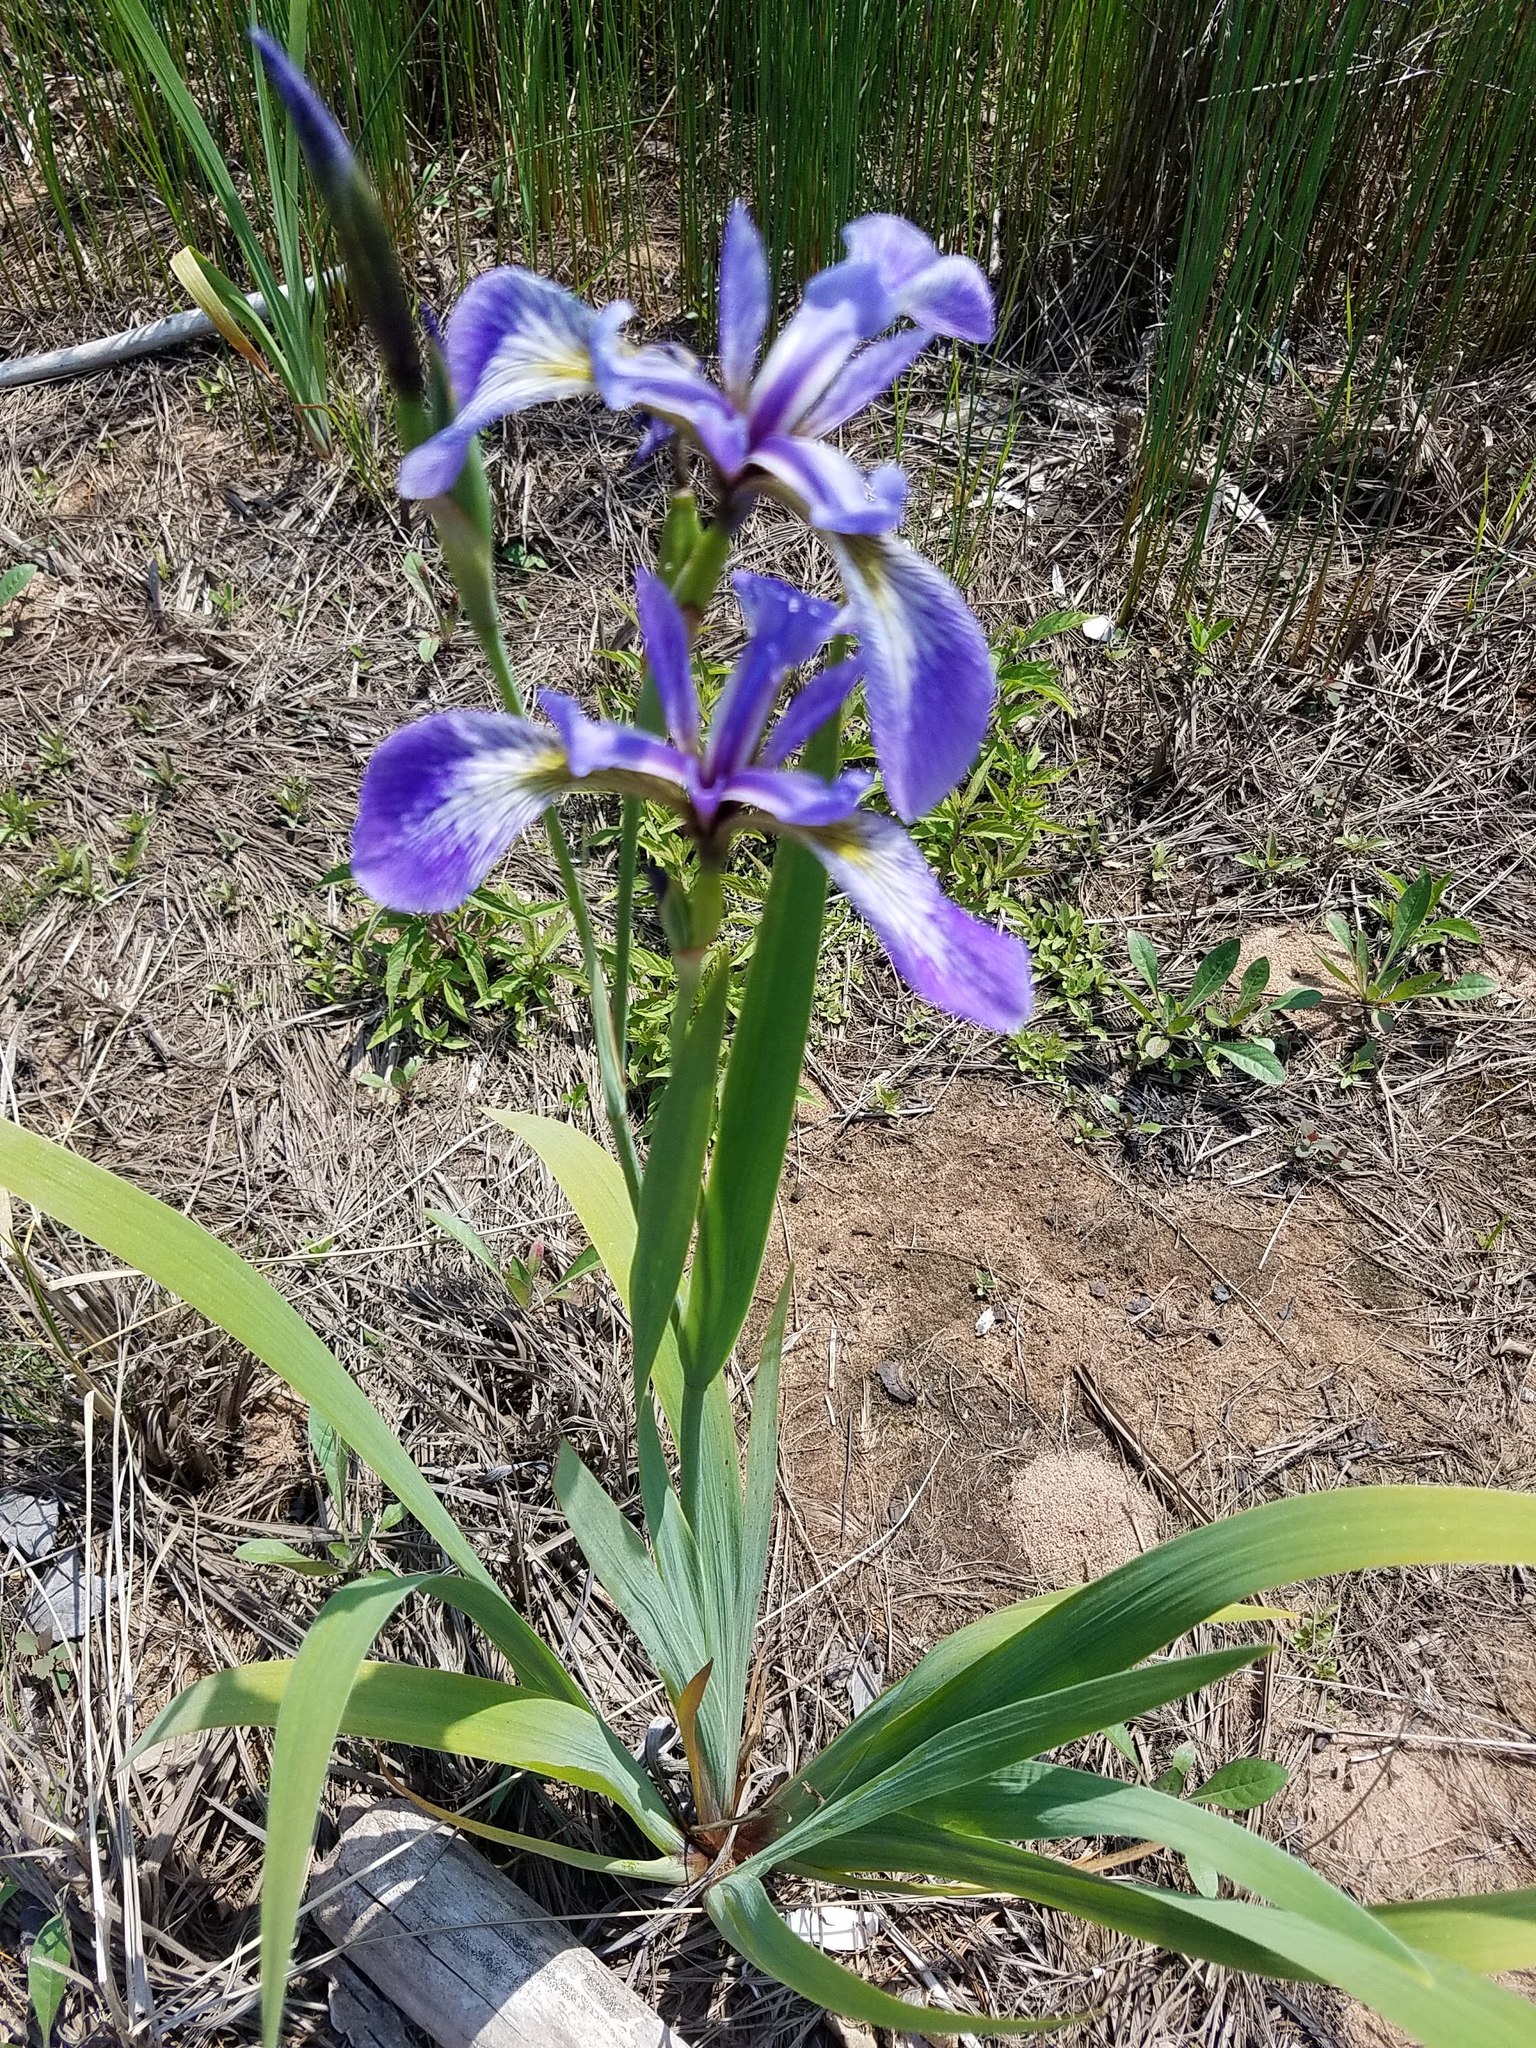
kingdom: Plantae
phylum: Tracheophyta
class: Liliopsida
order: Asparagales
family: Iridaceae
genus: Iris
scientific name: Iris versicolor
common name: Purple iris
